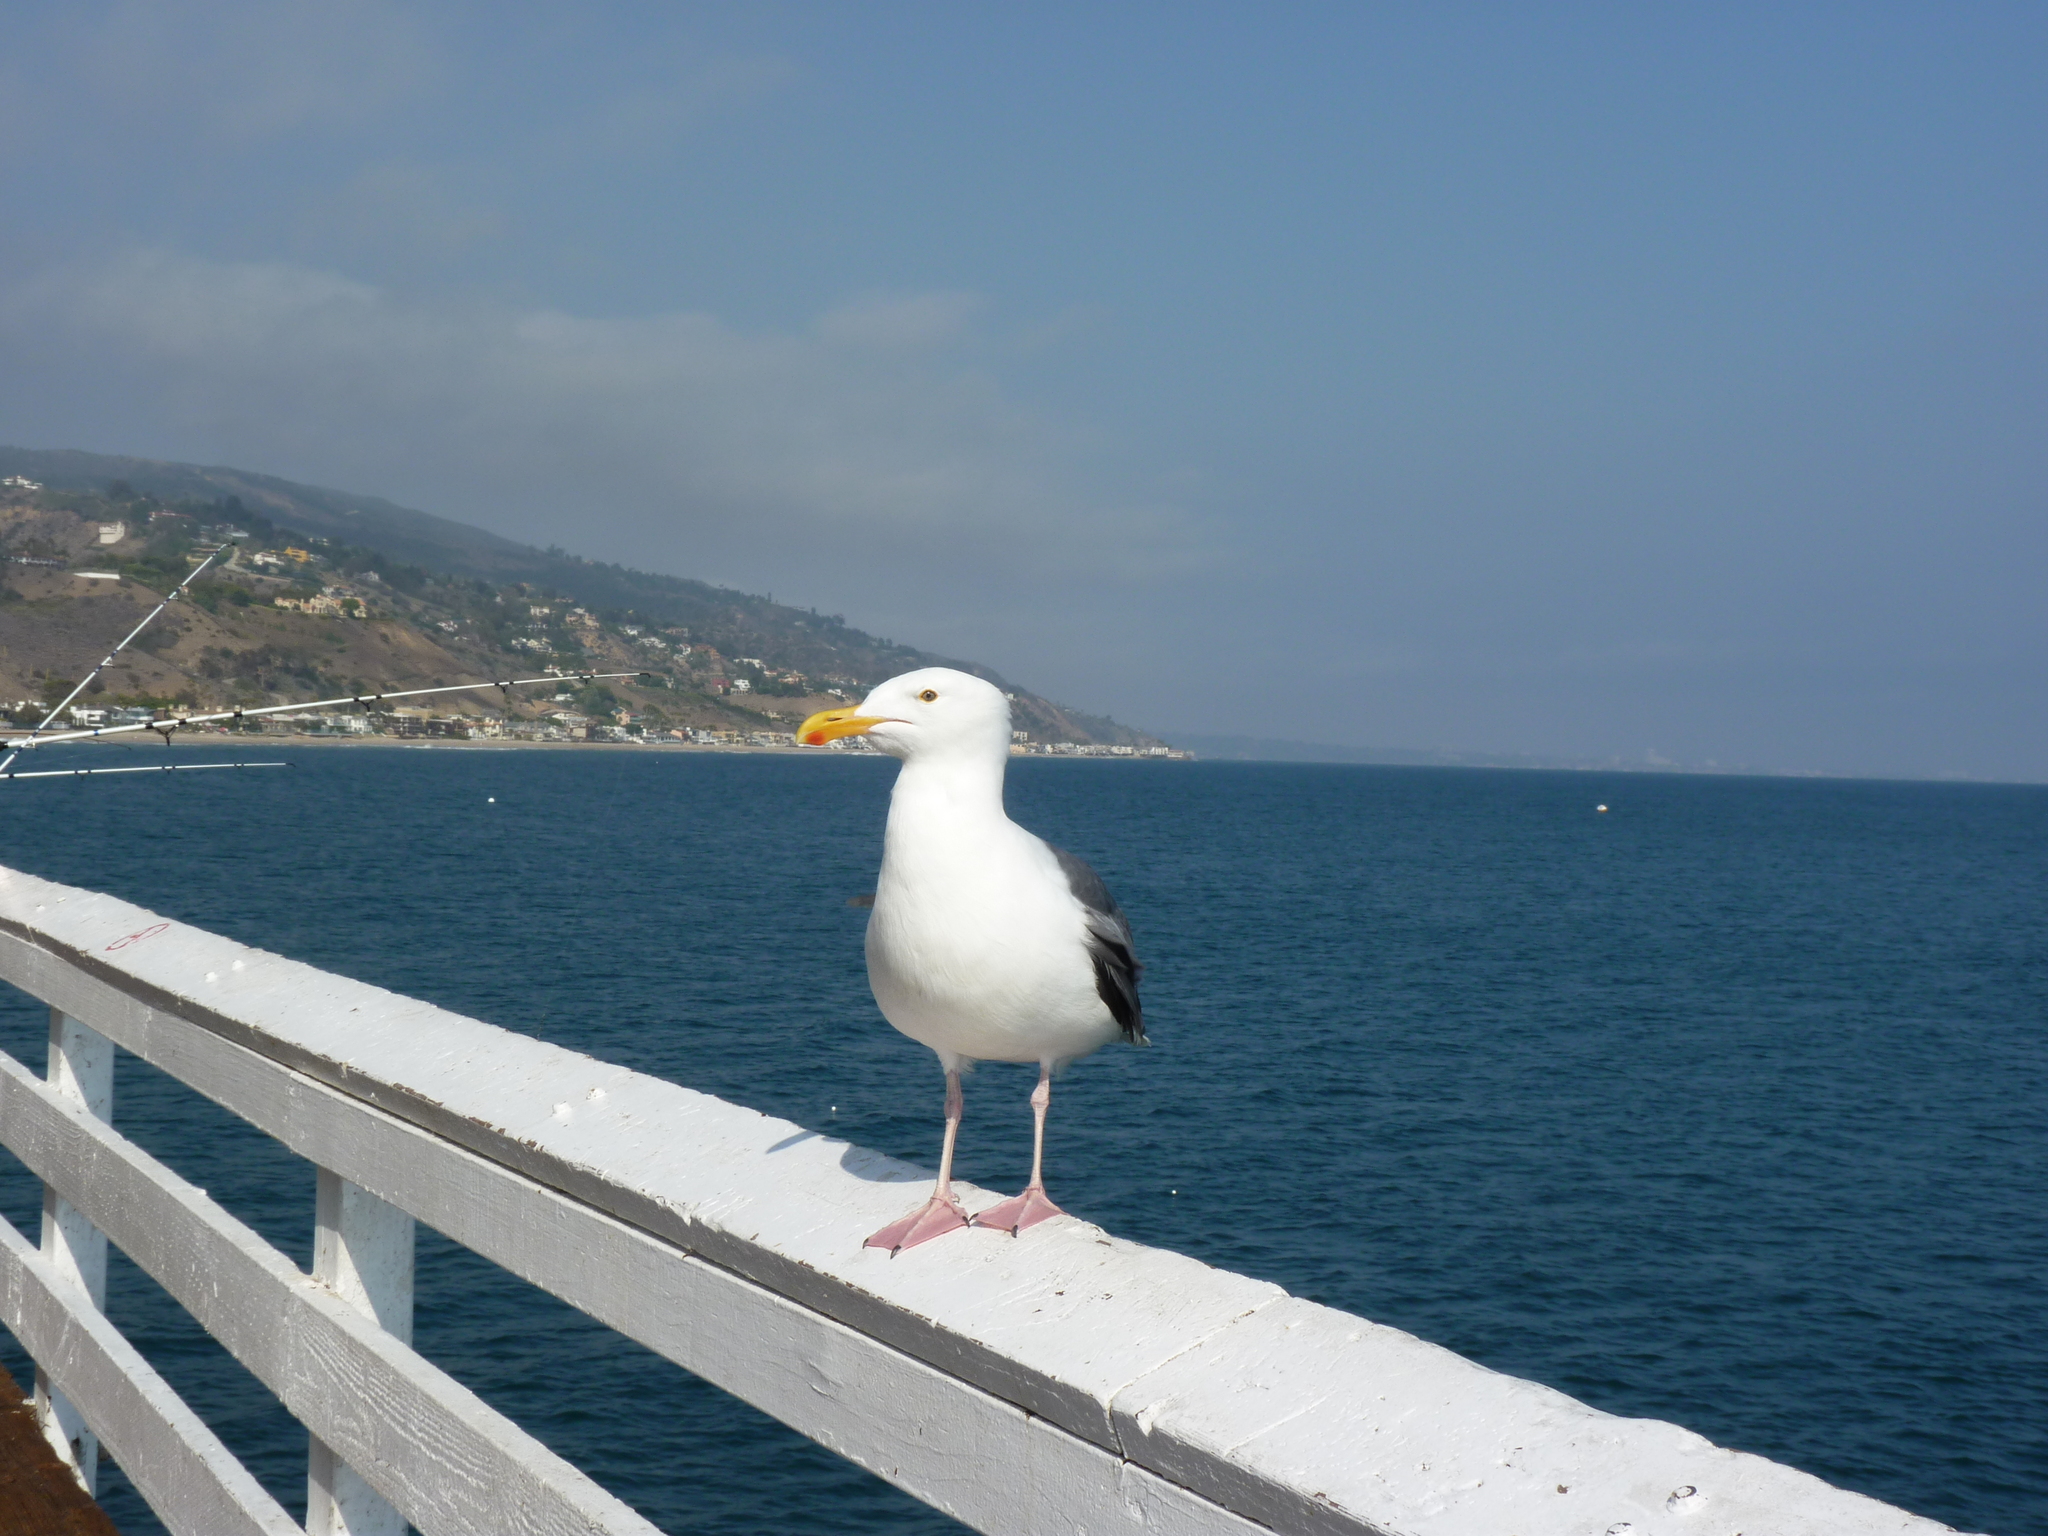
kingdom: Animalia
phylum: Chordata
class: Aves
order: Charadriiformes
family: Laridae
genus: Larus
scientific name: Larus occidentalis
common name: Western gull
